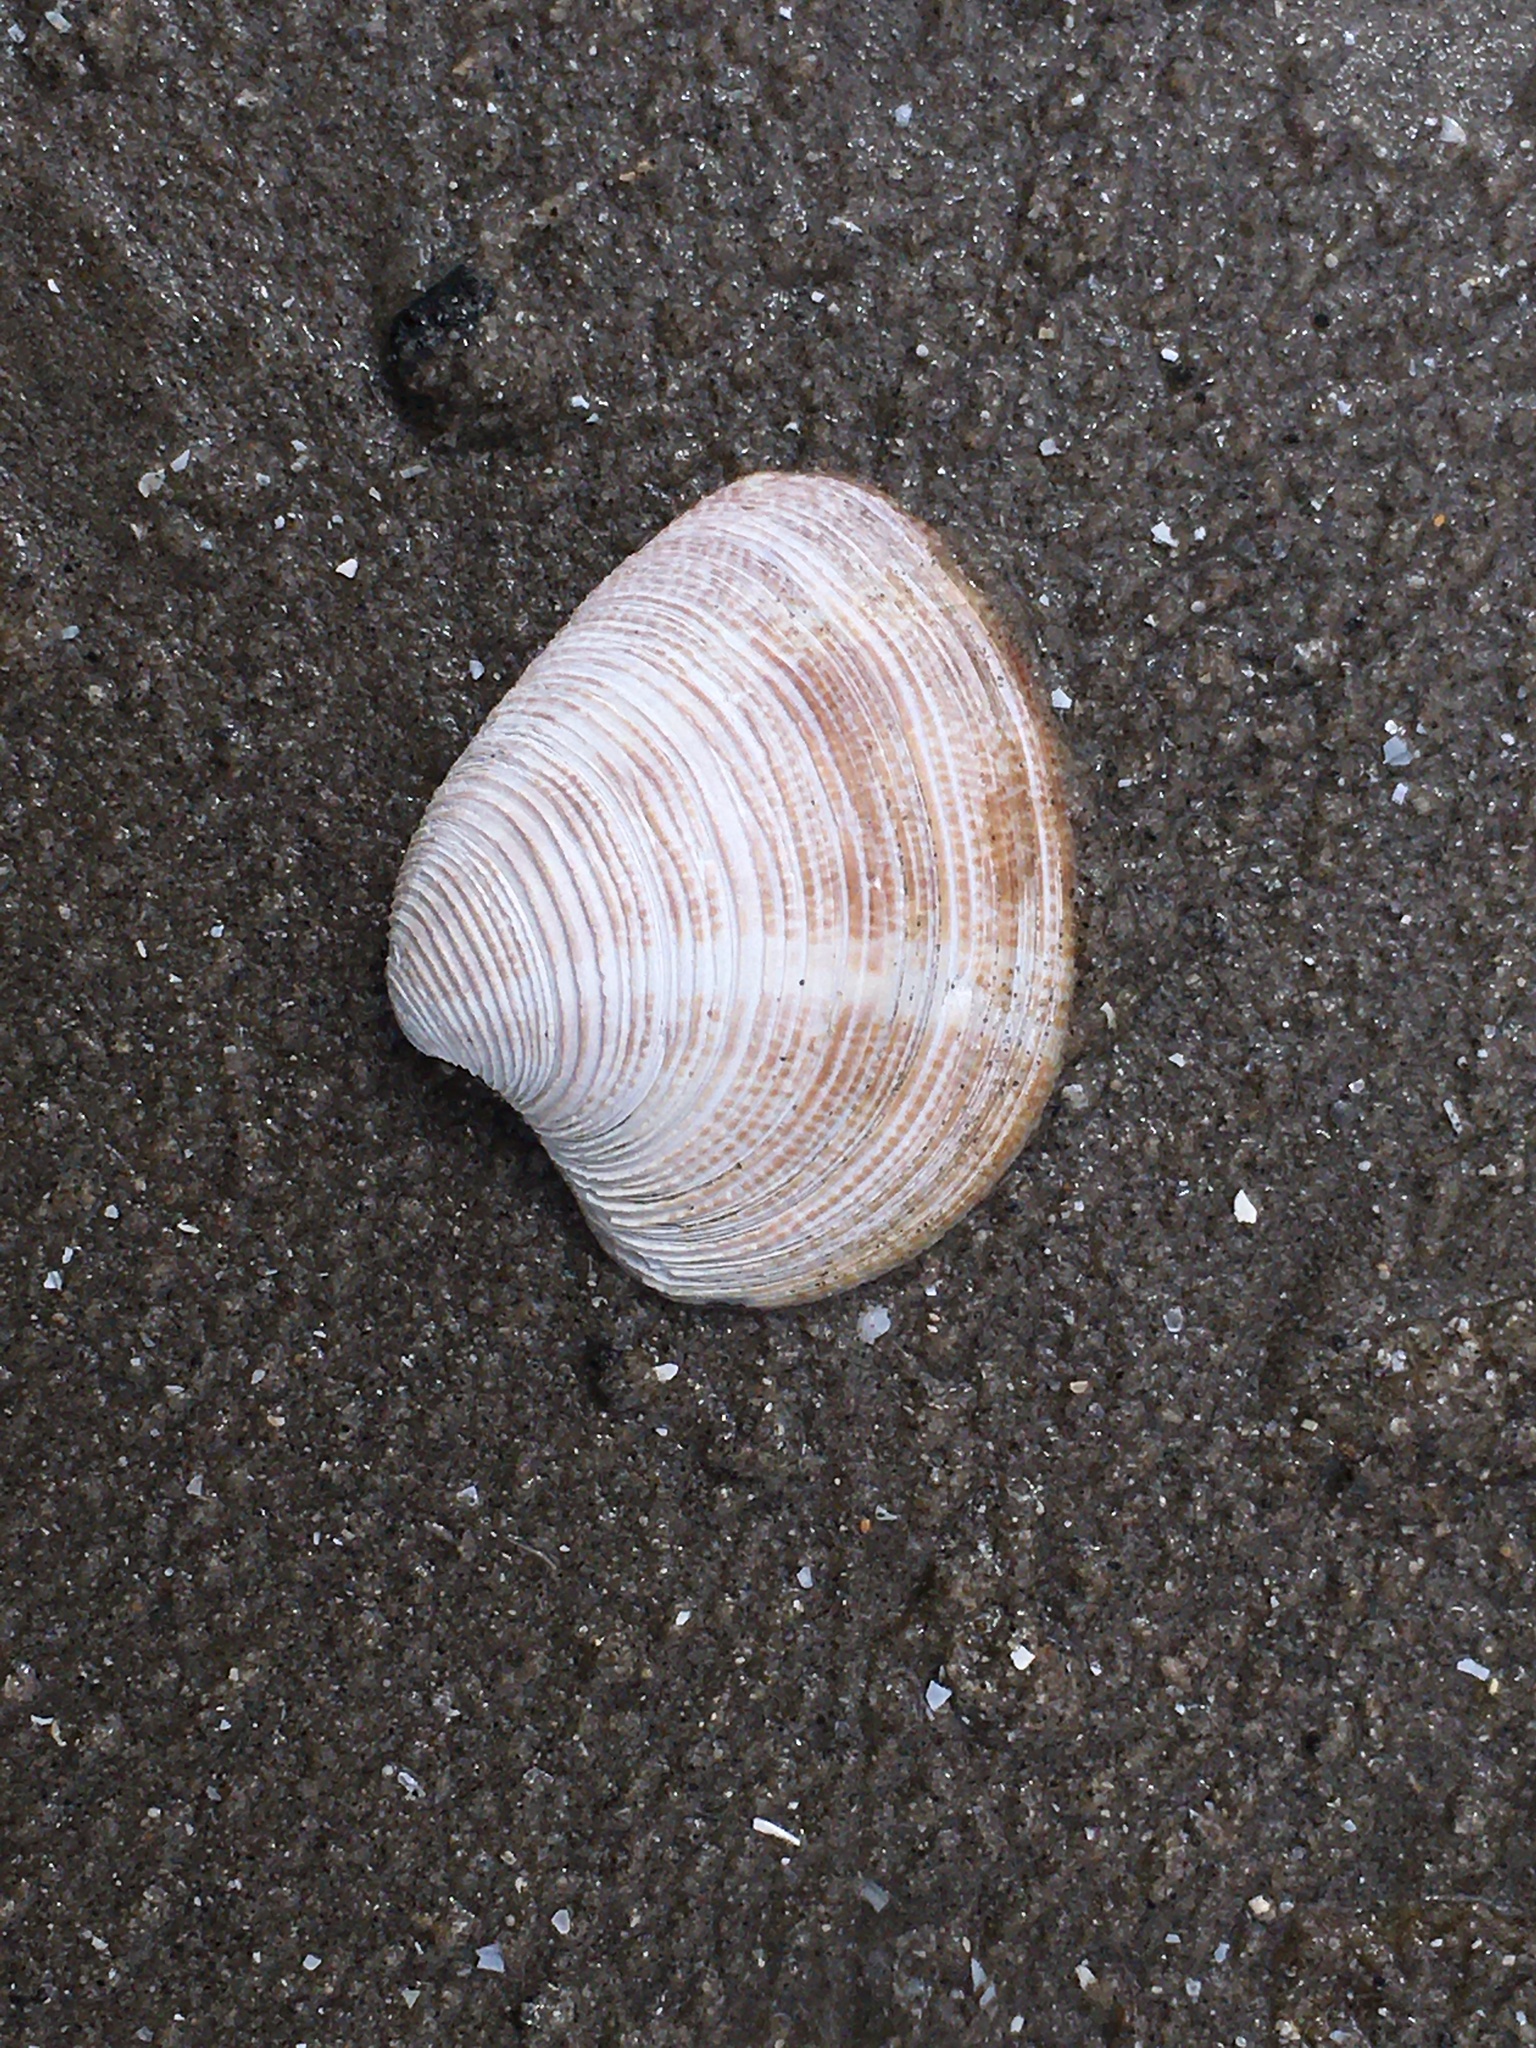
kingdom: Animalia
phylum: Mollusca
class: Bivalvia
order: Venerida
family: Veneridae
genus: Chamelea
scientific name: Chamelea striatula
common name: Striped venus
